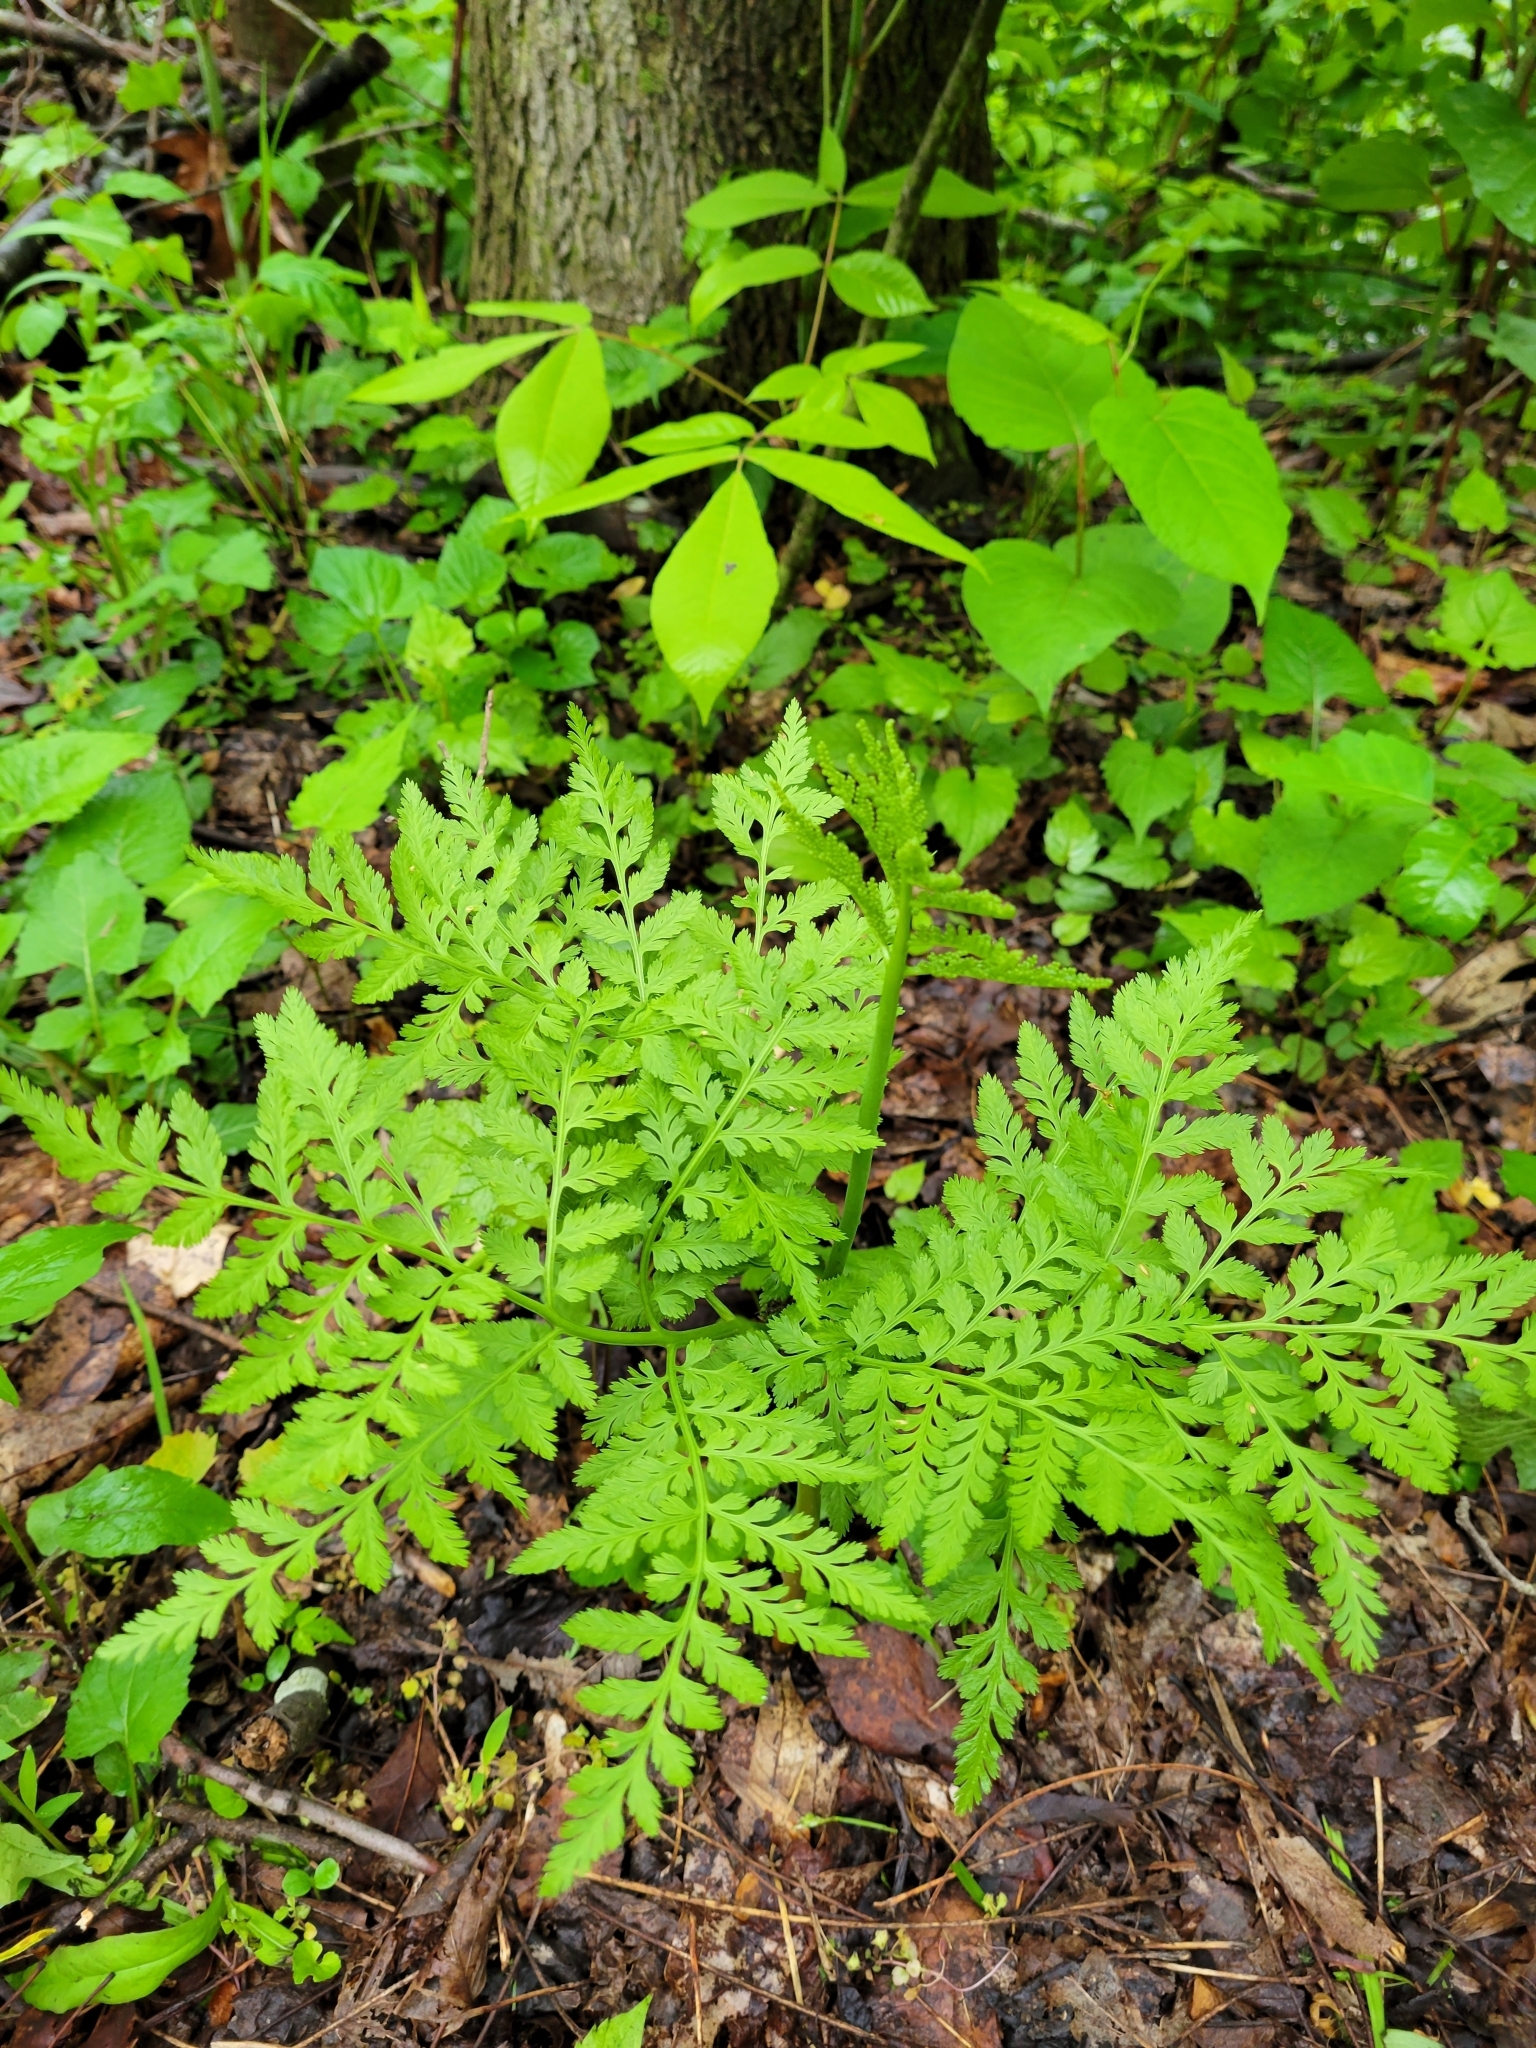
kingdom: Plantae
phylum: Tracheophyta
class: Polypodiopsida
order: Ophioglossales
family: Ophioglossaceae
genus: Botrypus
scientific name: Botrypus virginianus
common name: Common grapefern
